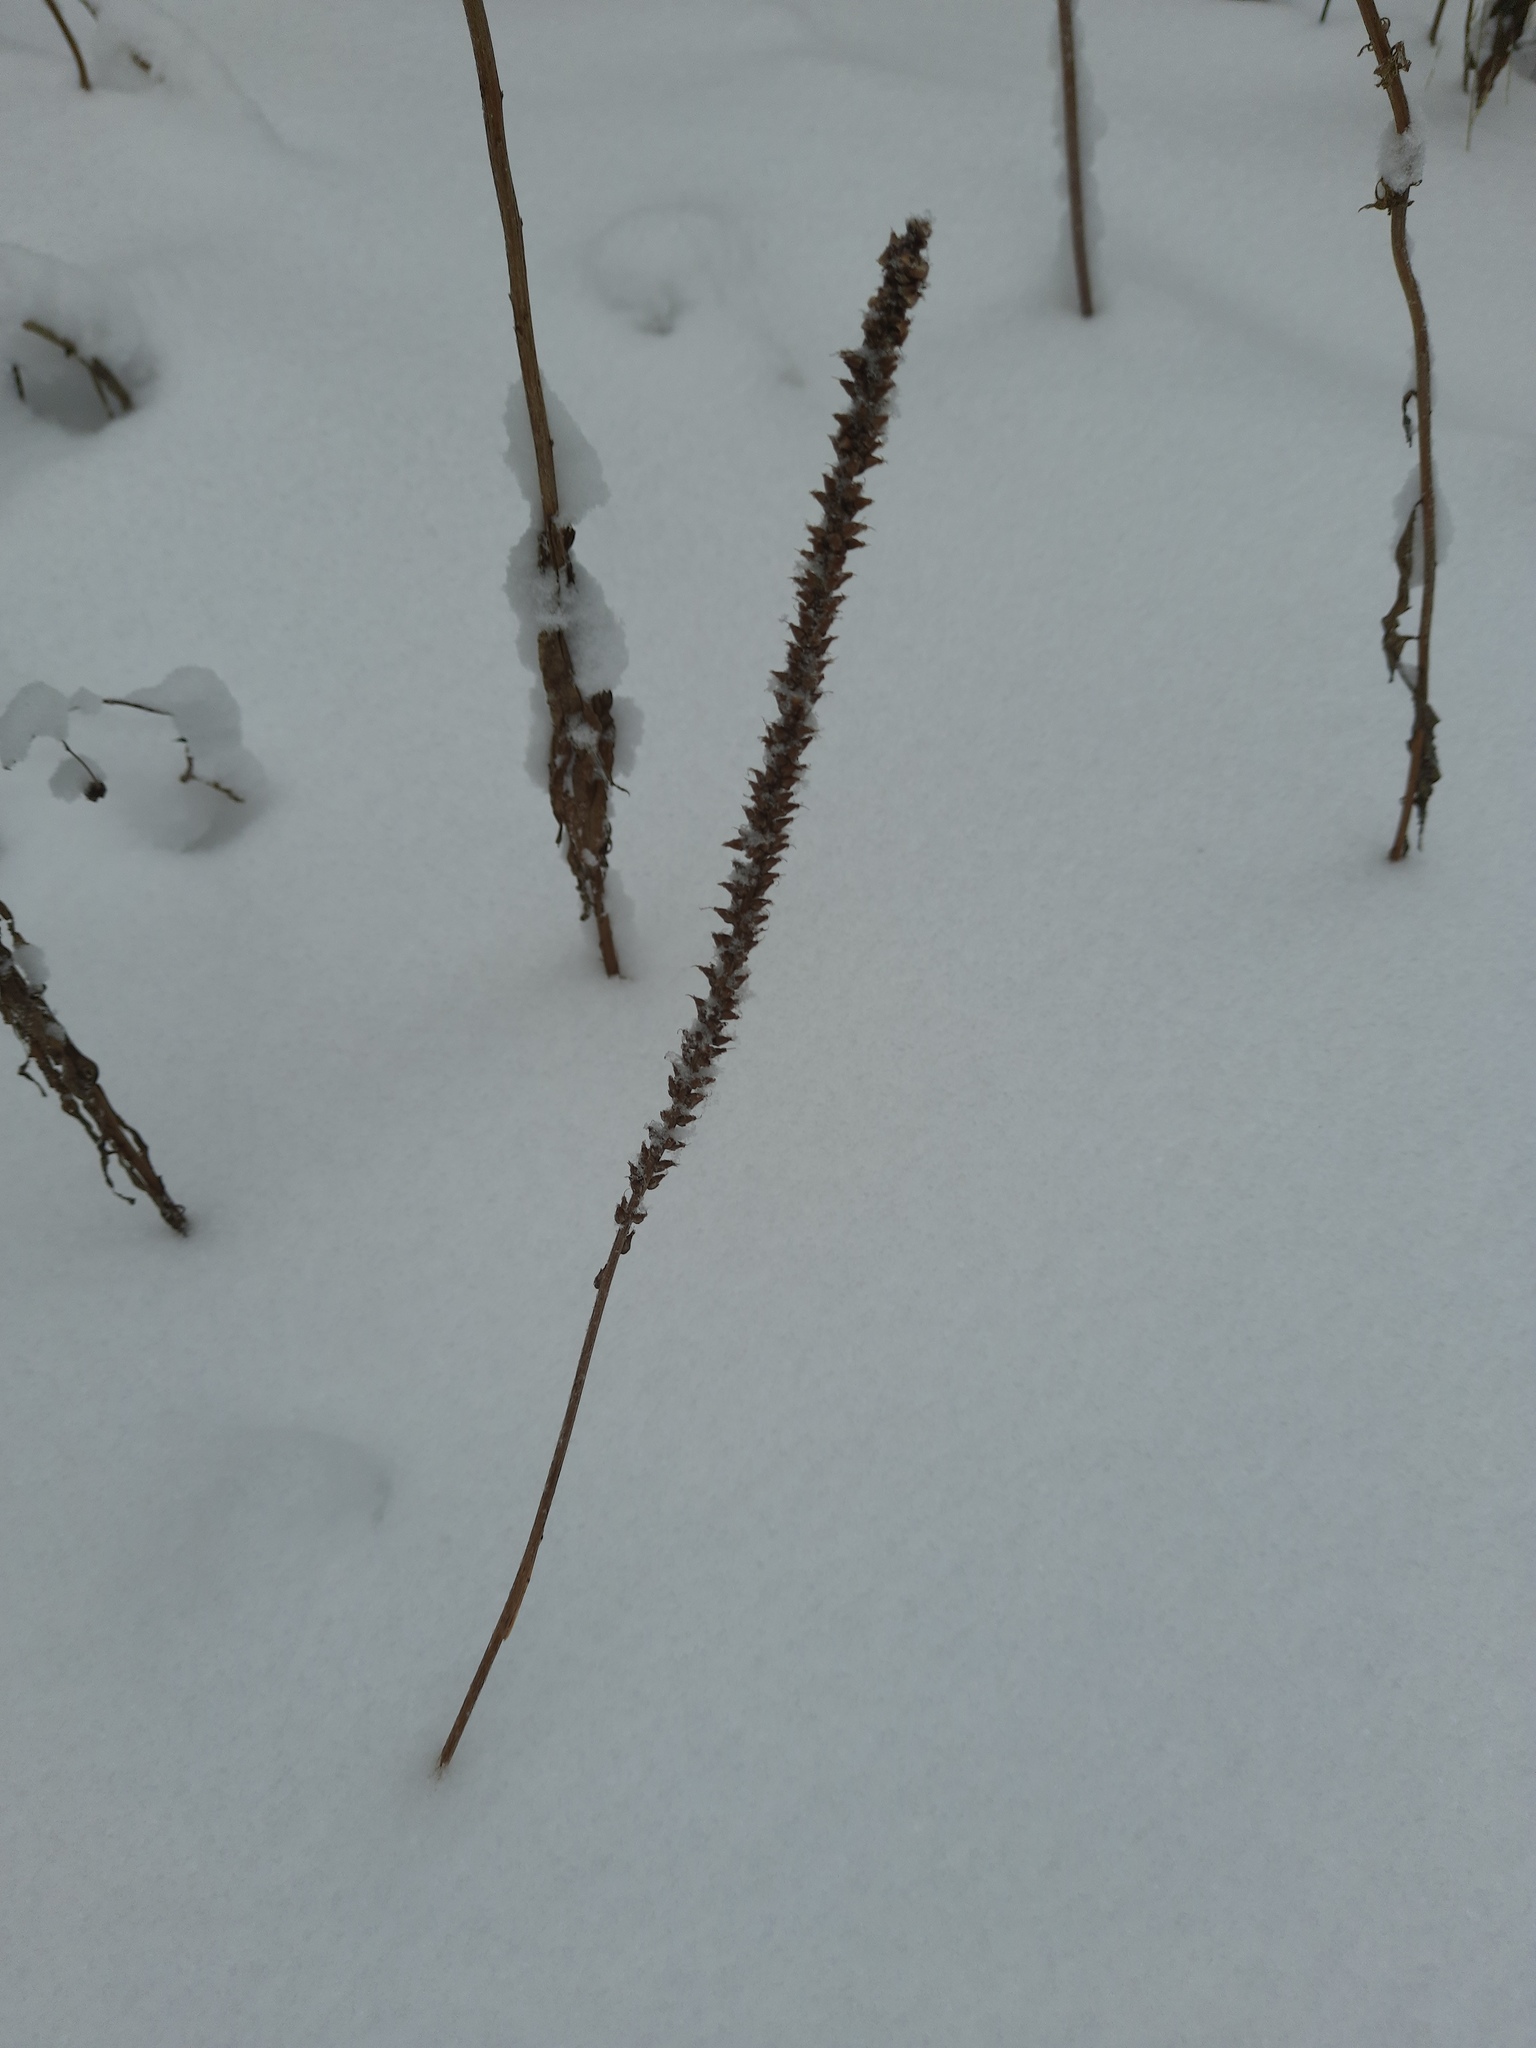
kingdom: Plantae
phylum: Tracheophyta
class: Magnoliopsida
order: Lamiales
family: Plantaginaceae
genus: Plantago
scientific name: Plantago major
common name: Common plantain
